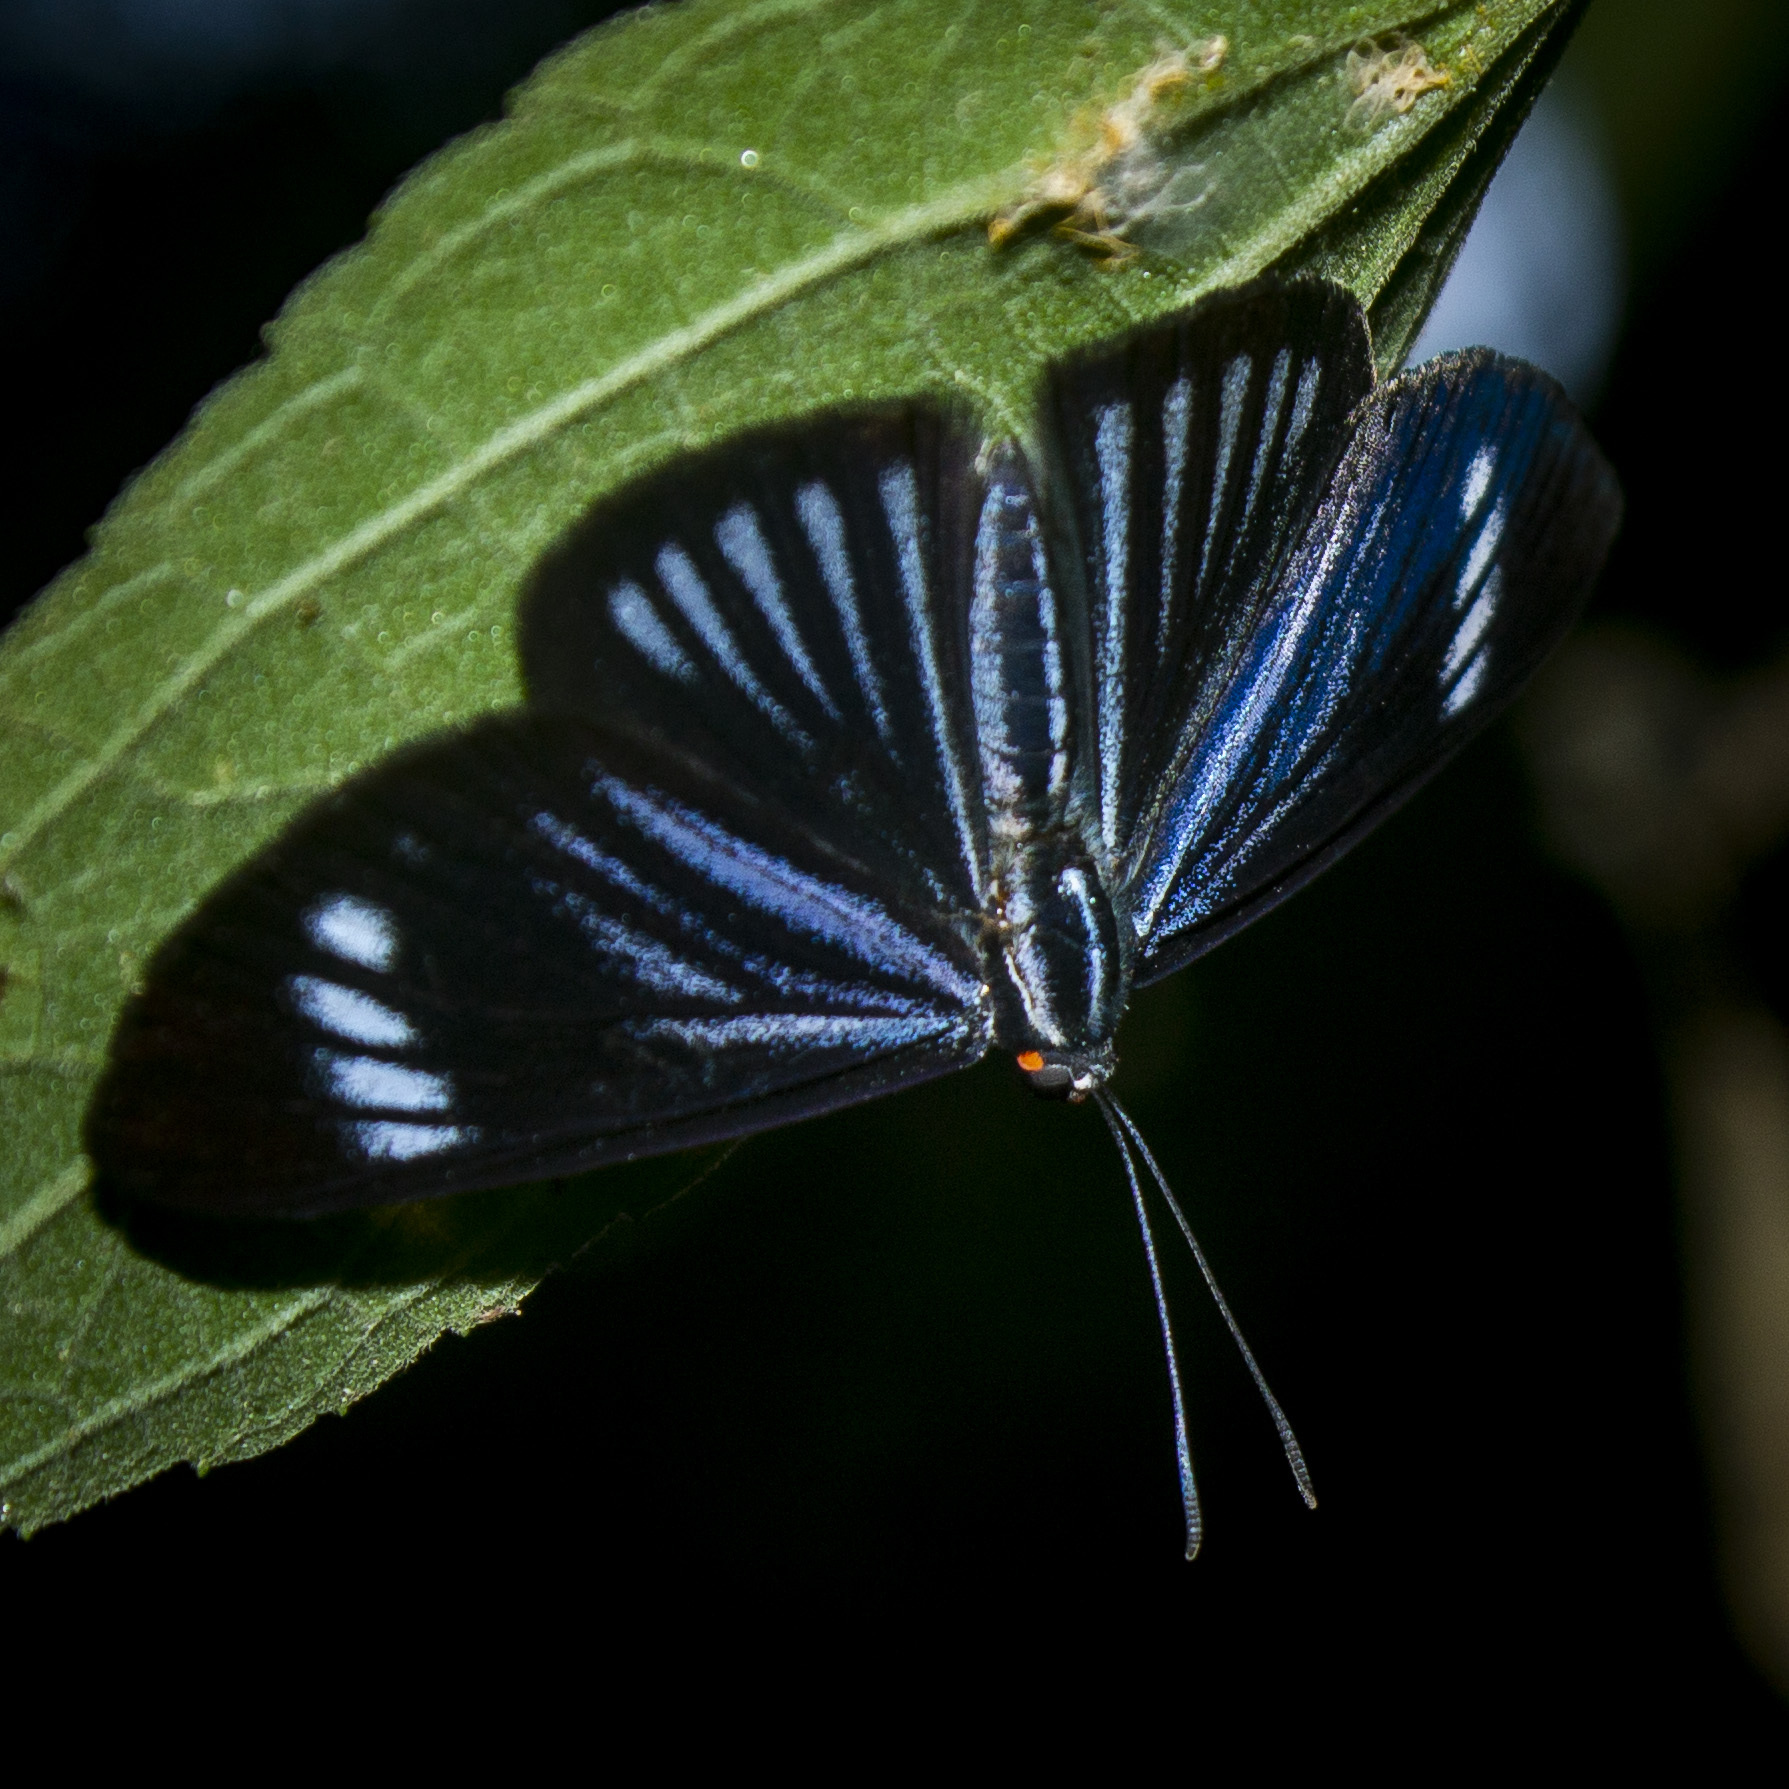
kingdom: Animalia
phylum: Arthropoda
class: Insecta
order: Lepidoptera
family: Riodinidae
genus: Brachyglenis
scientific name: Brachyglenis colaxes
